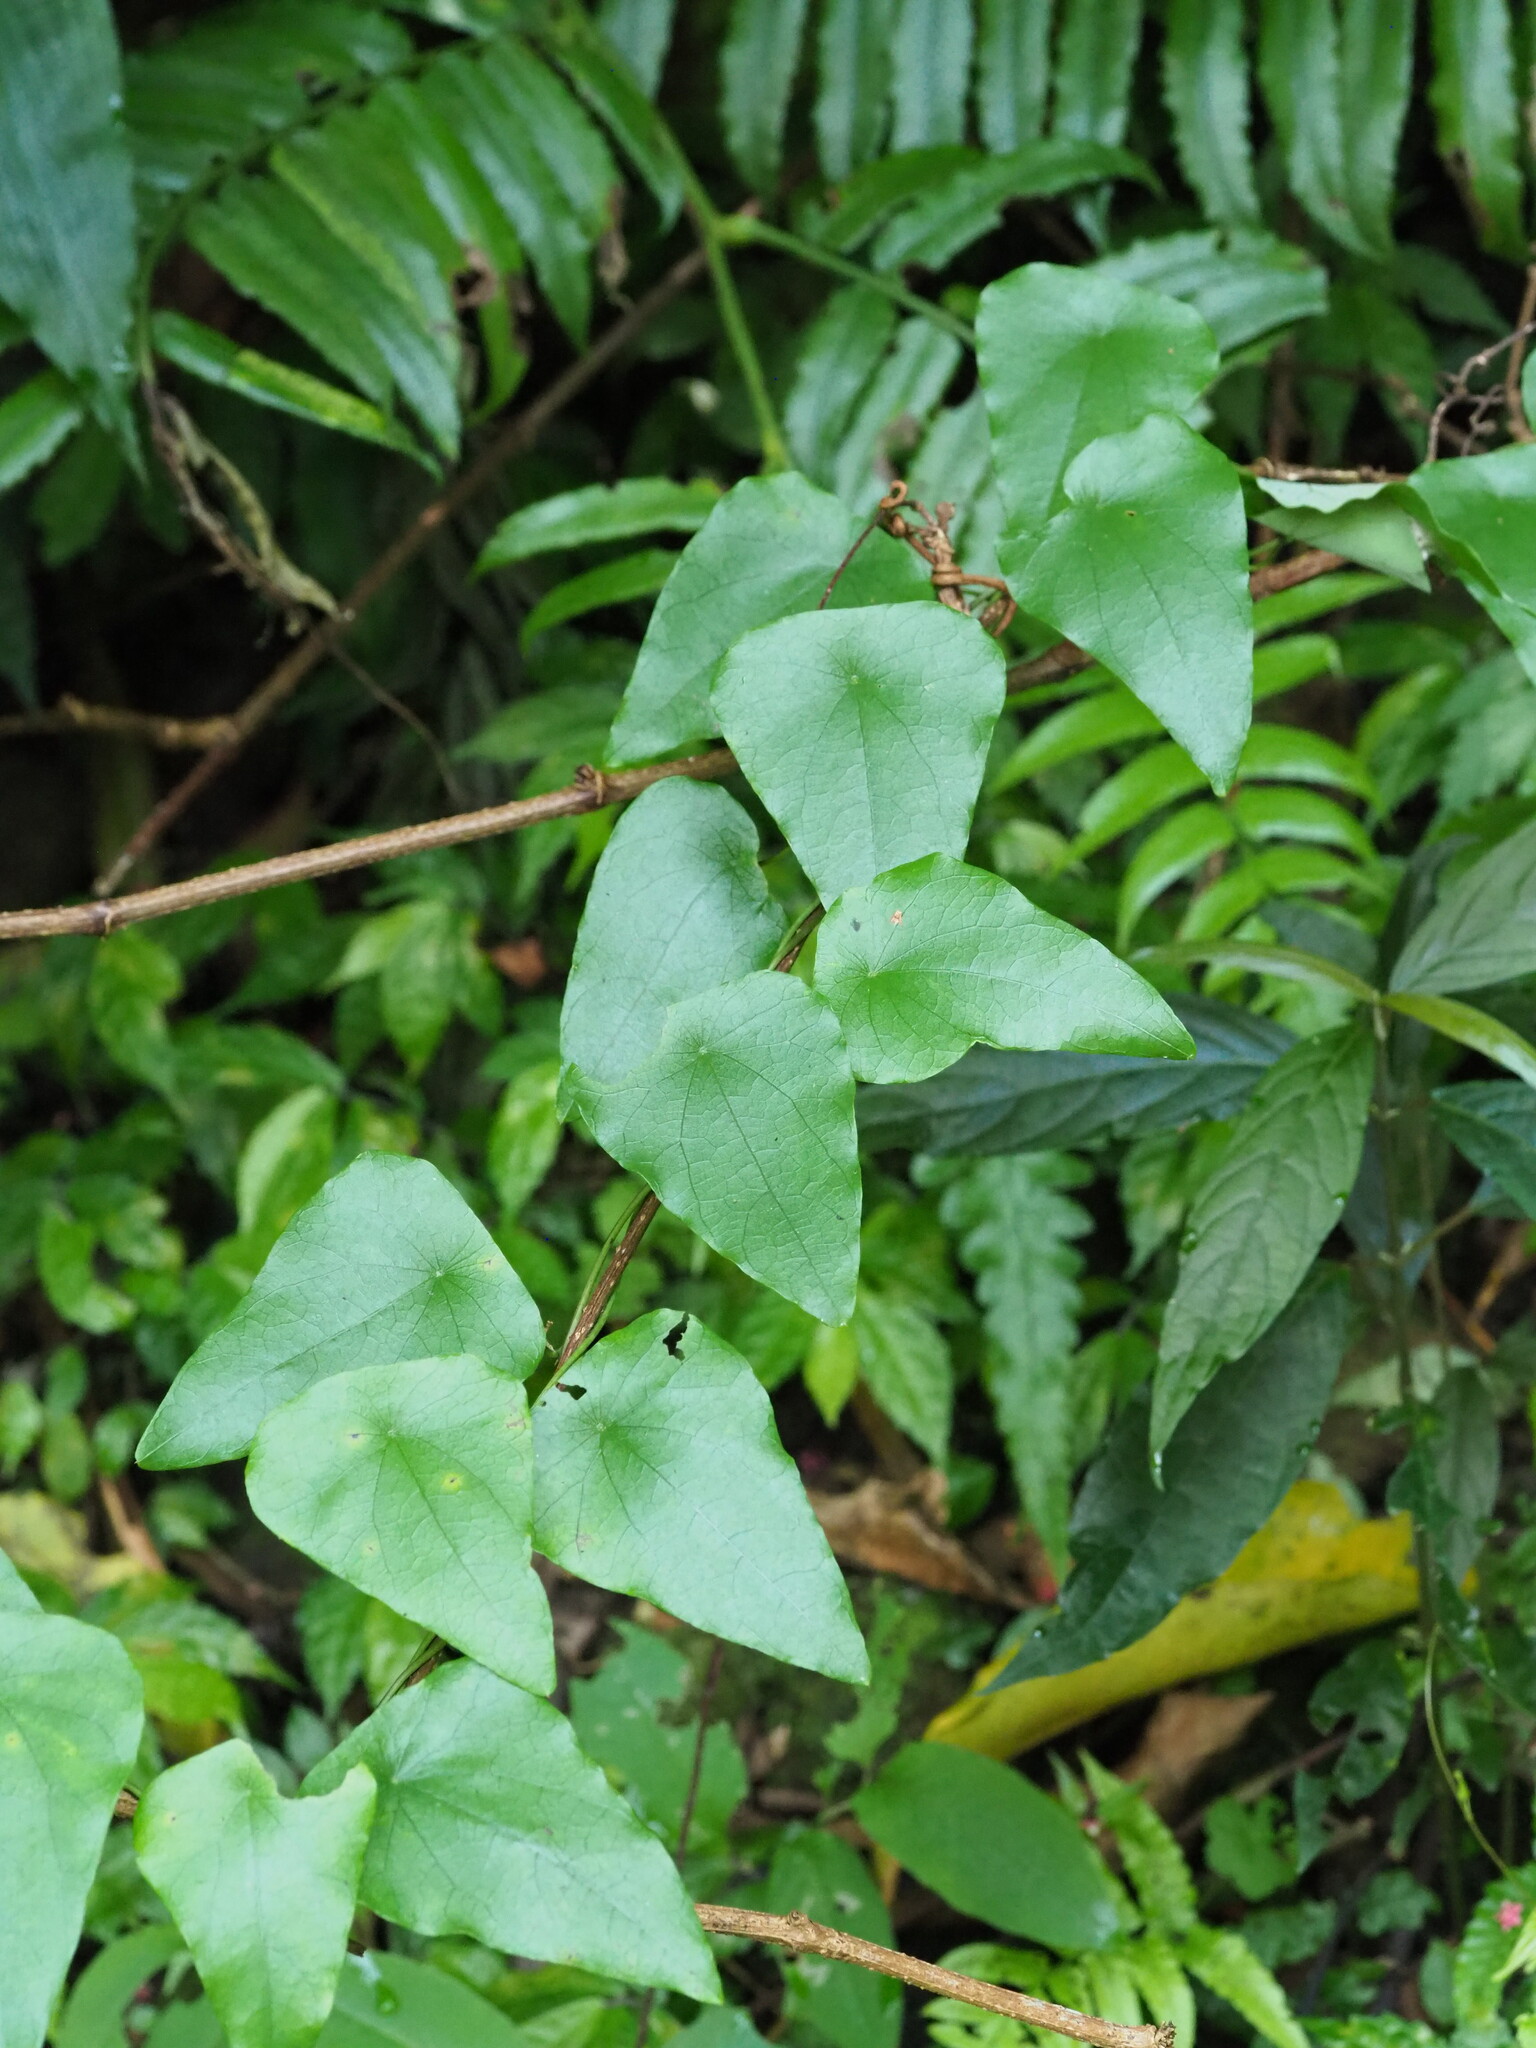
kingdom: Plantae
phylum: Tracheophyta
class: Magnoliopsida
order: Ranunculales
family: Menispermaceae
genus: Stephania
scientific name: Stephania longa
